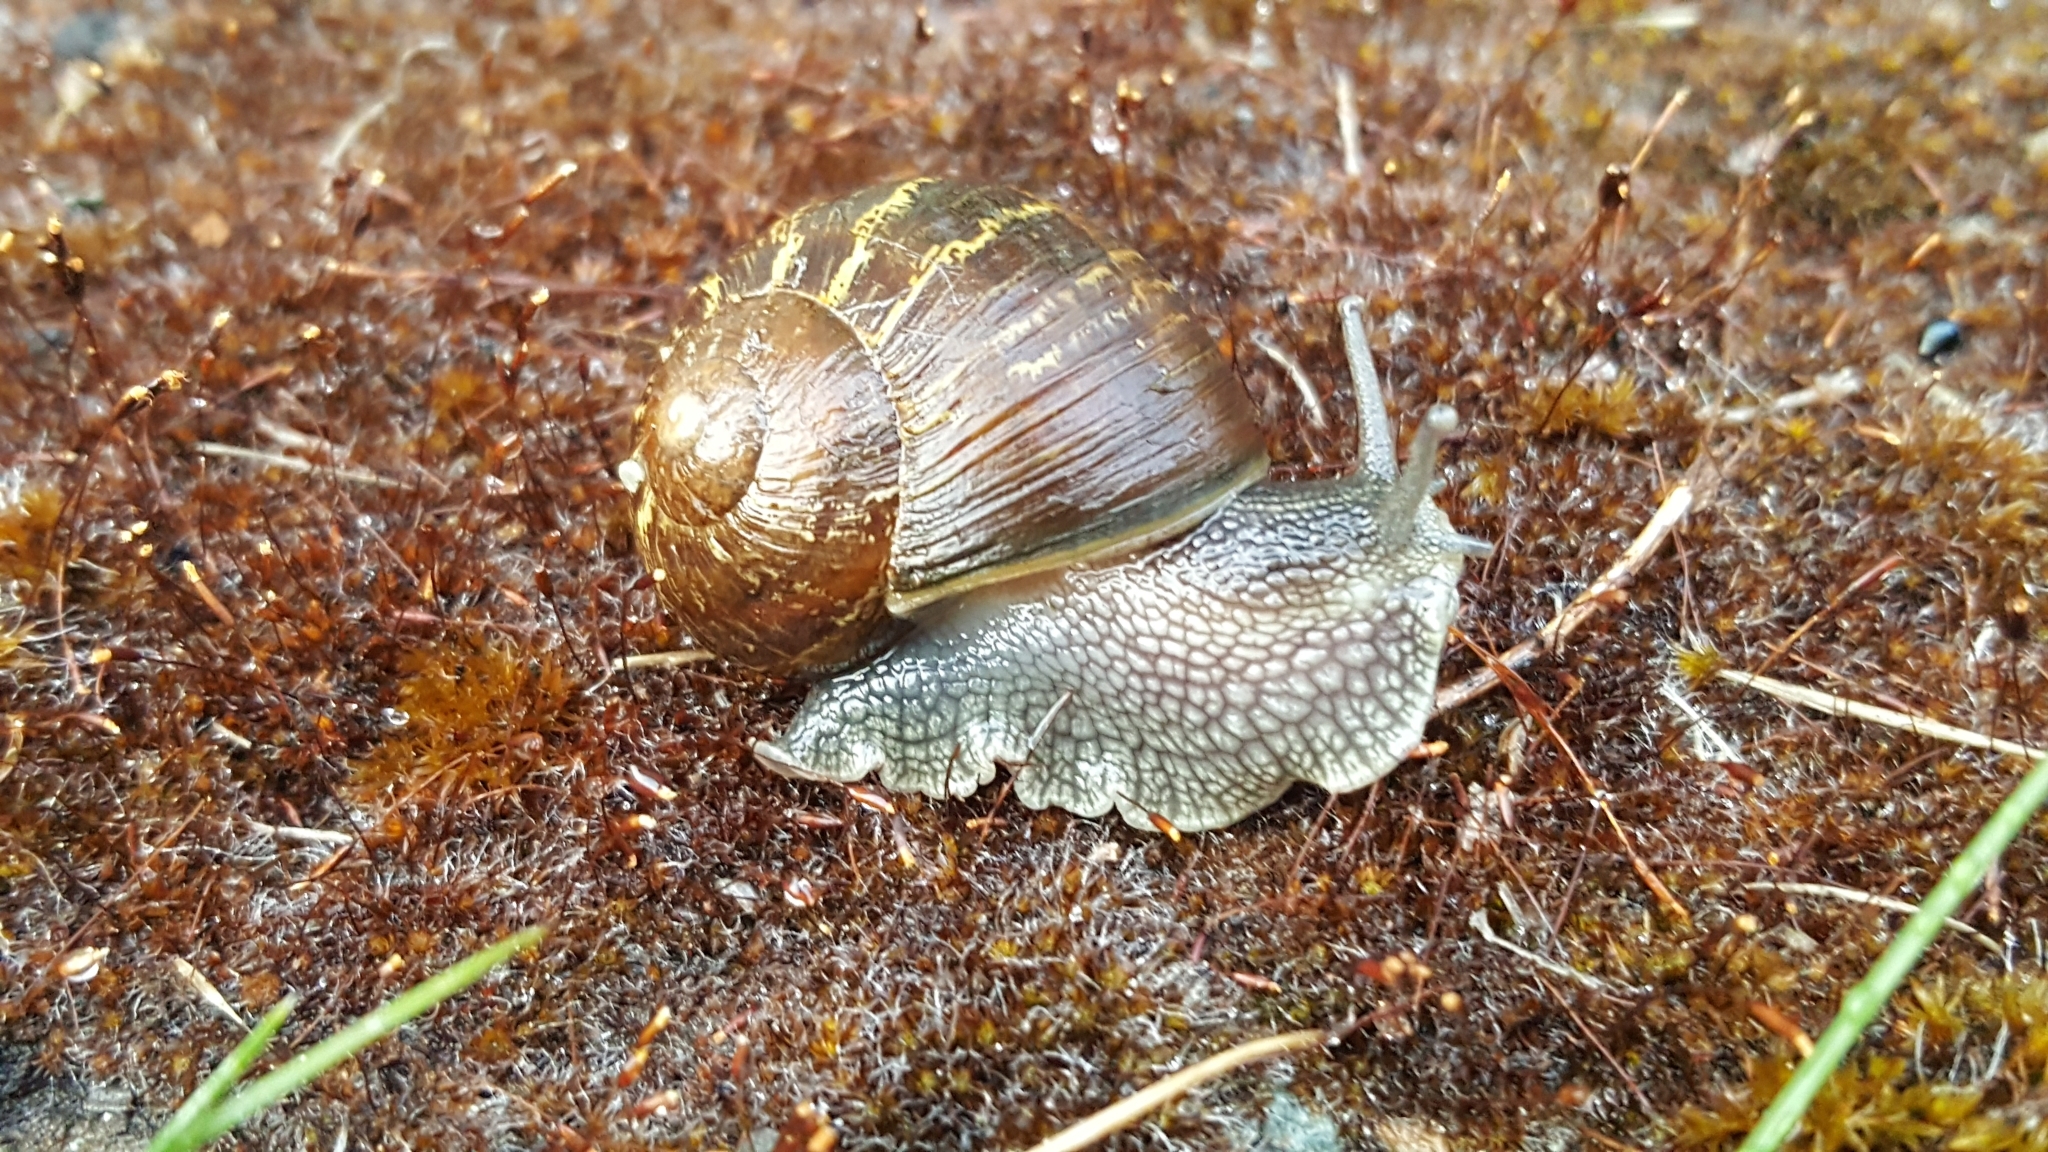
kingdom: Animalia
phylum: Mollusca
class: Gastropoda
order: Stylommatophora
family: Helicidae
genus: Cornu
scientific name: Cornu aspersum
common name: Brown garden snail
